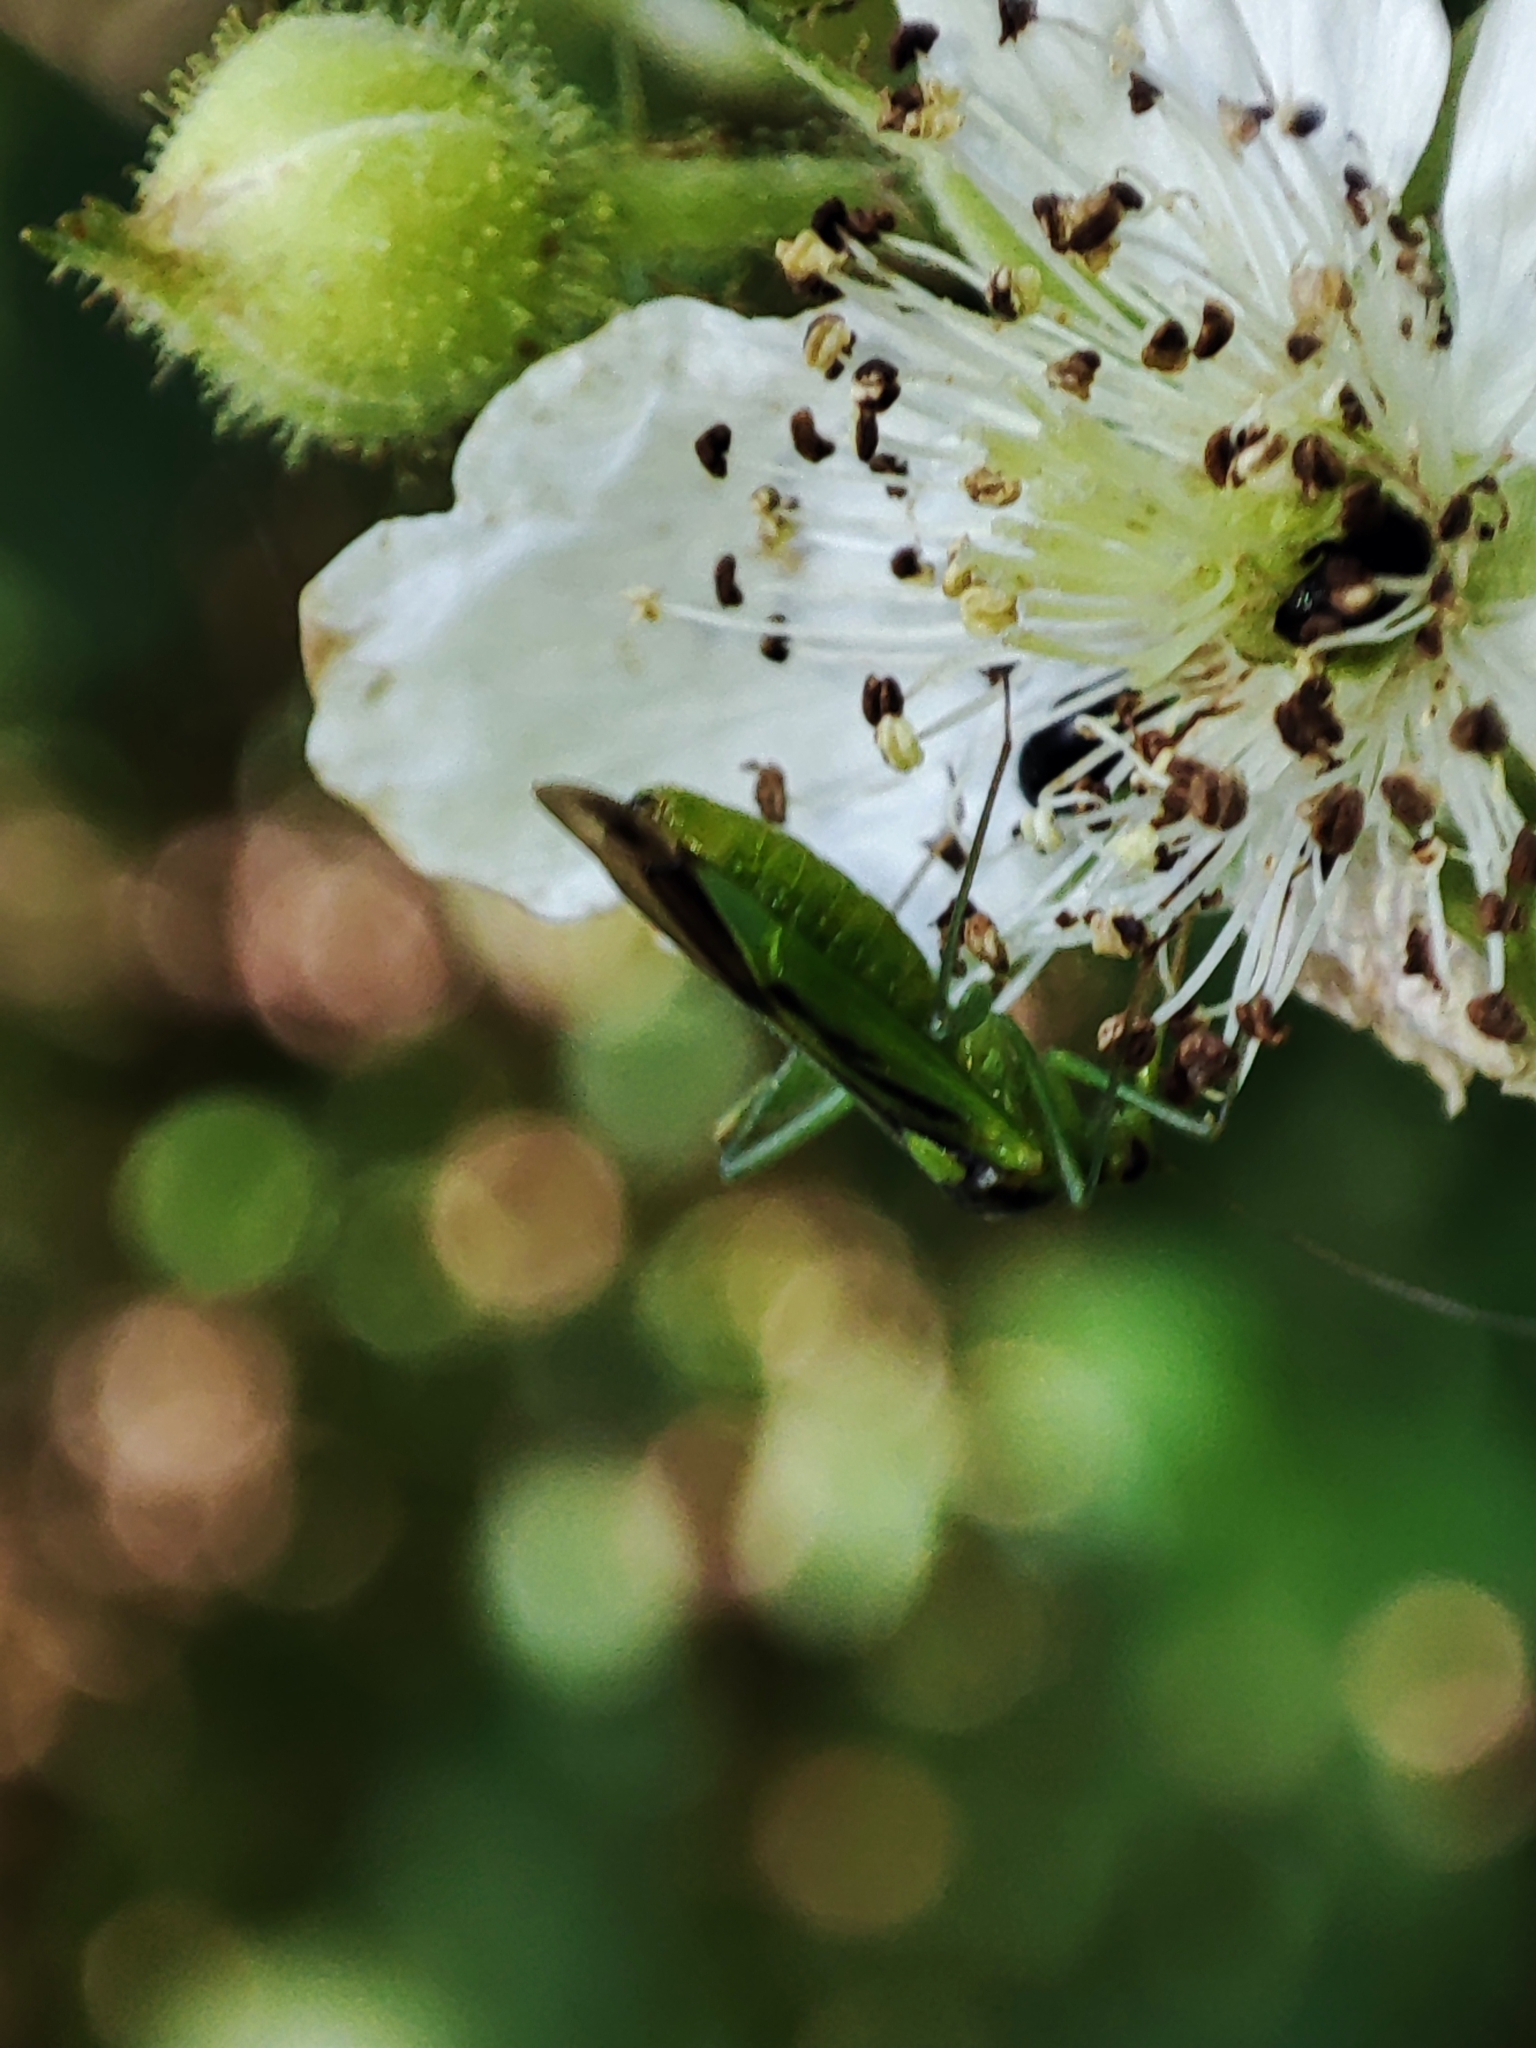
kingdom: Animalia
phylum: Arthropoda
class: Insecta
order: Hemiptera
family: Miridae
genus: Odontoplatys
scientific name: Odontoplatys suturalis
